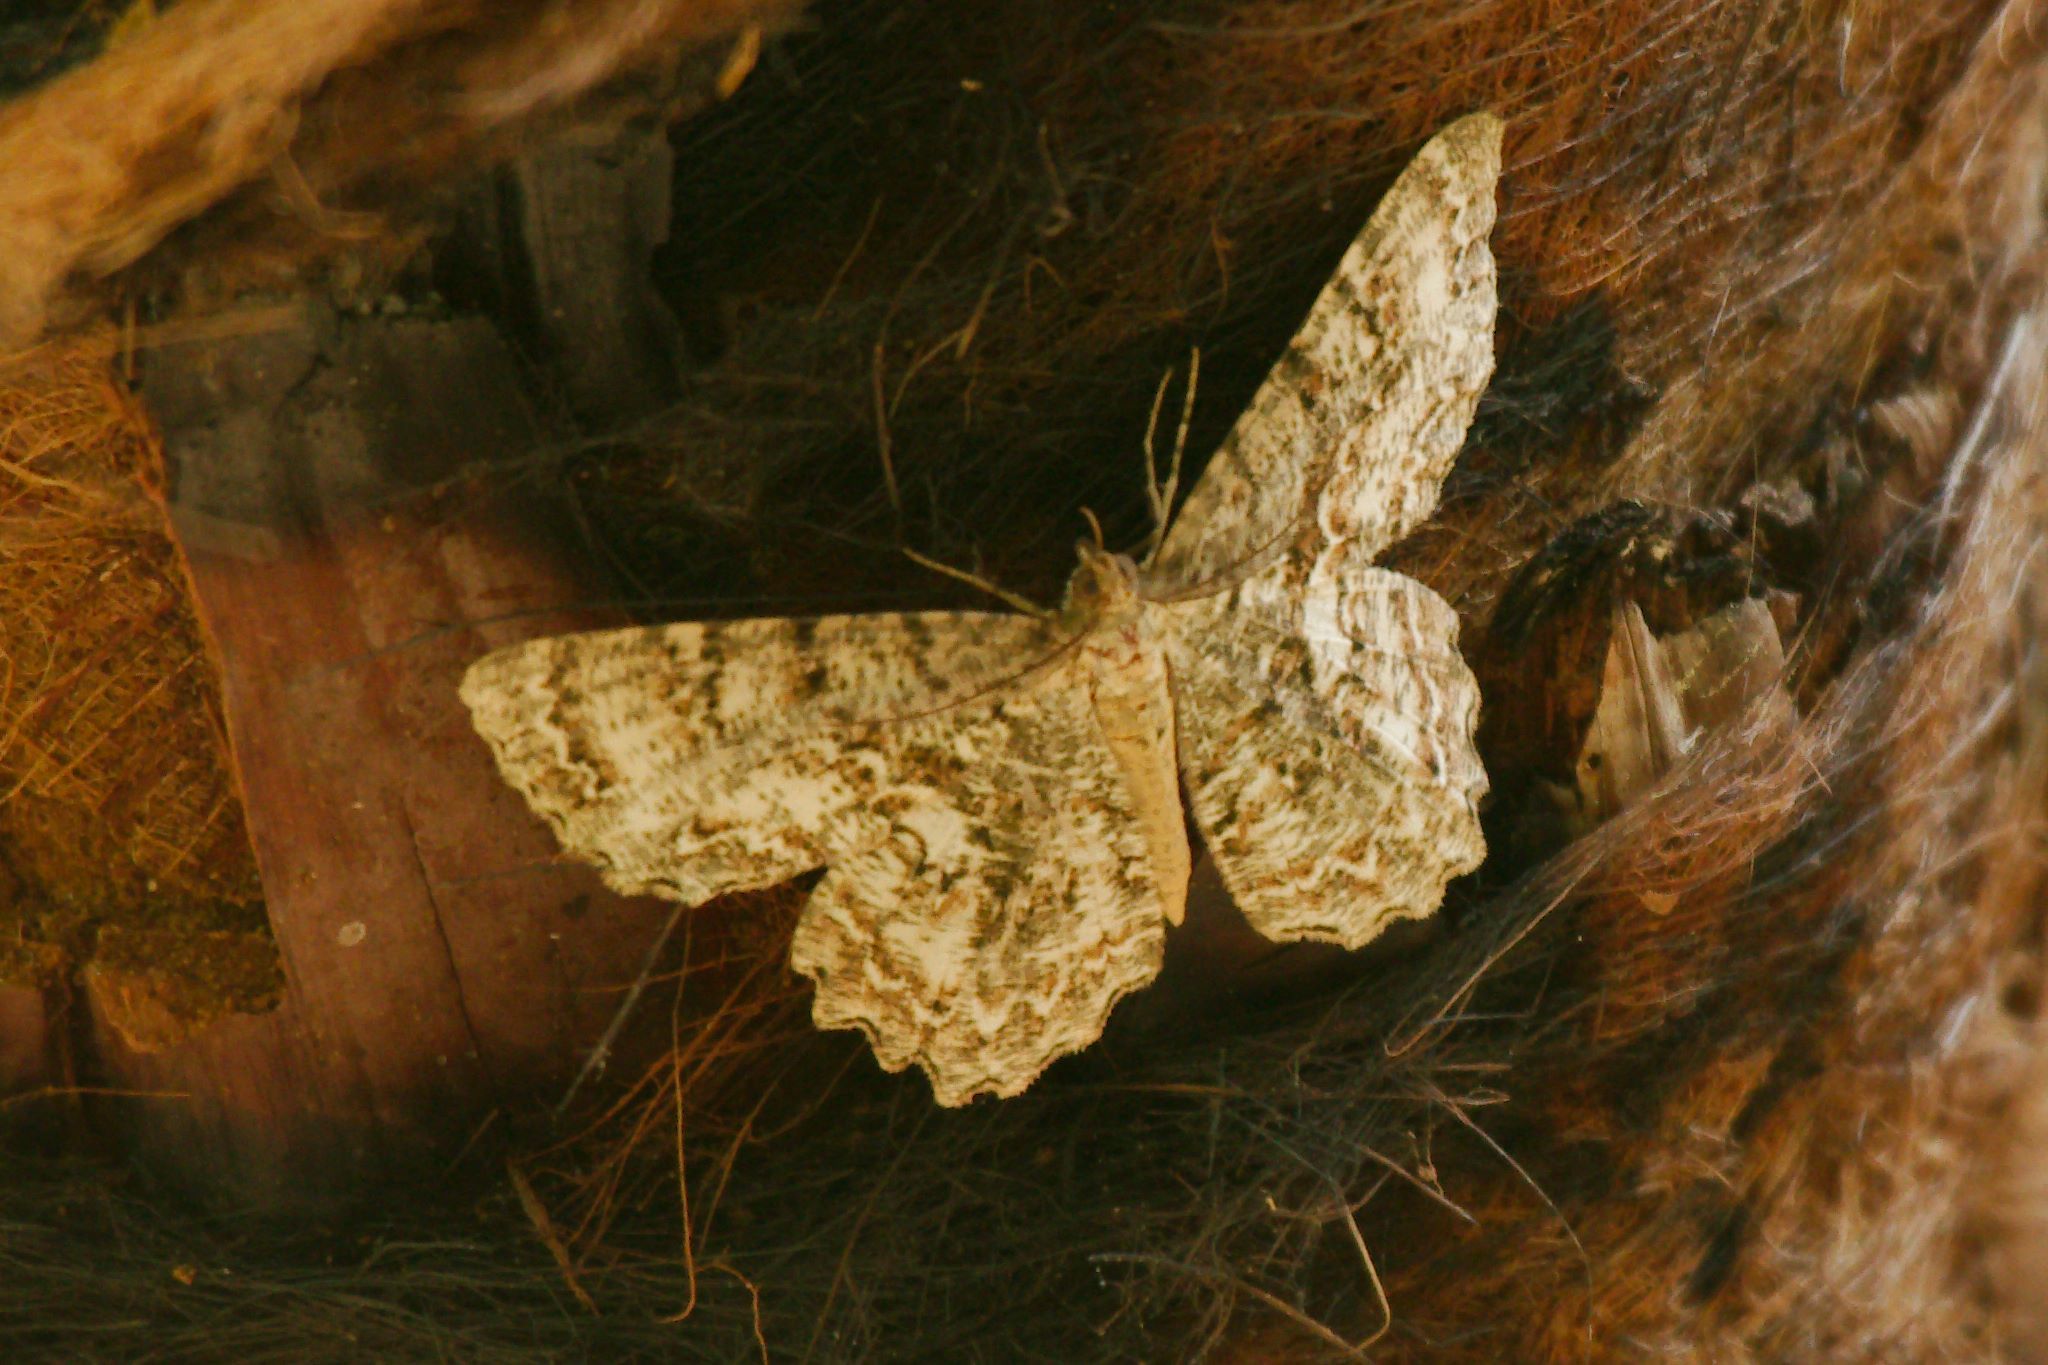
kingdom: Animalia
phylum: Arthropoda
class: Insecta
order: Lepidoptera
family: Geometridae
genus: Epimecis
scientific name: Epimecis hortaria
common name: Tulip-tree beauty
